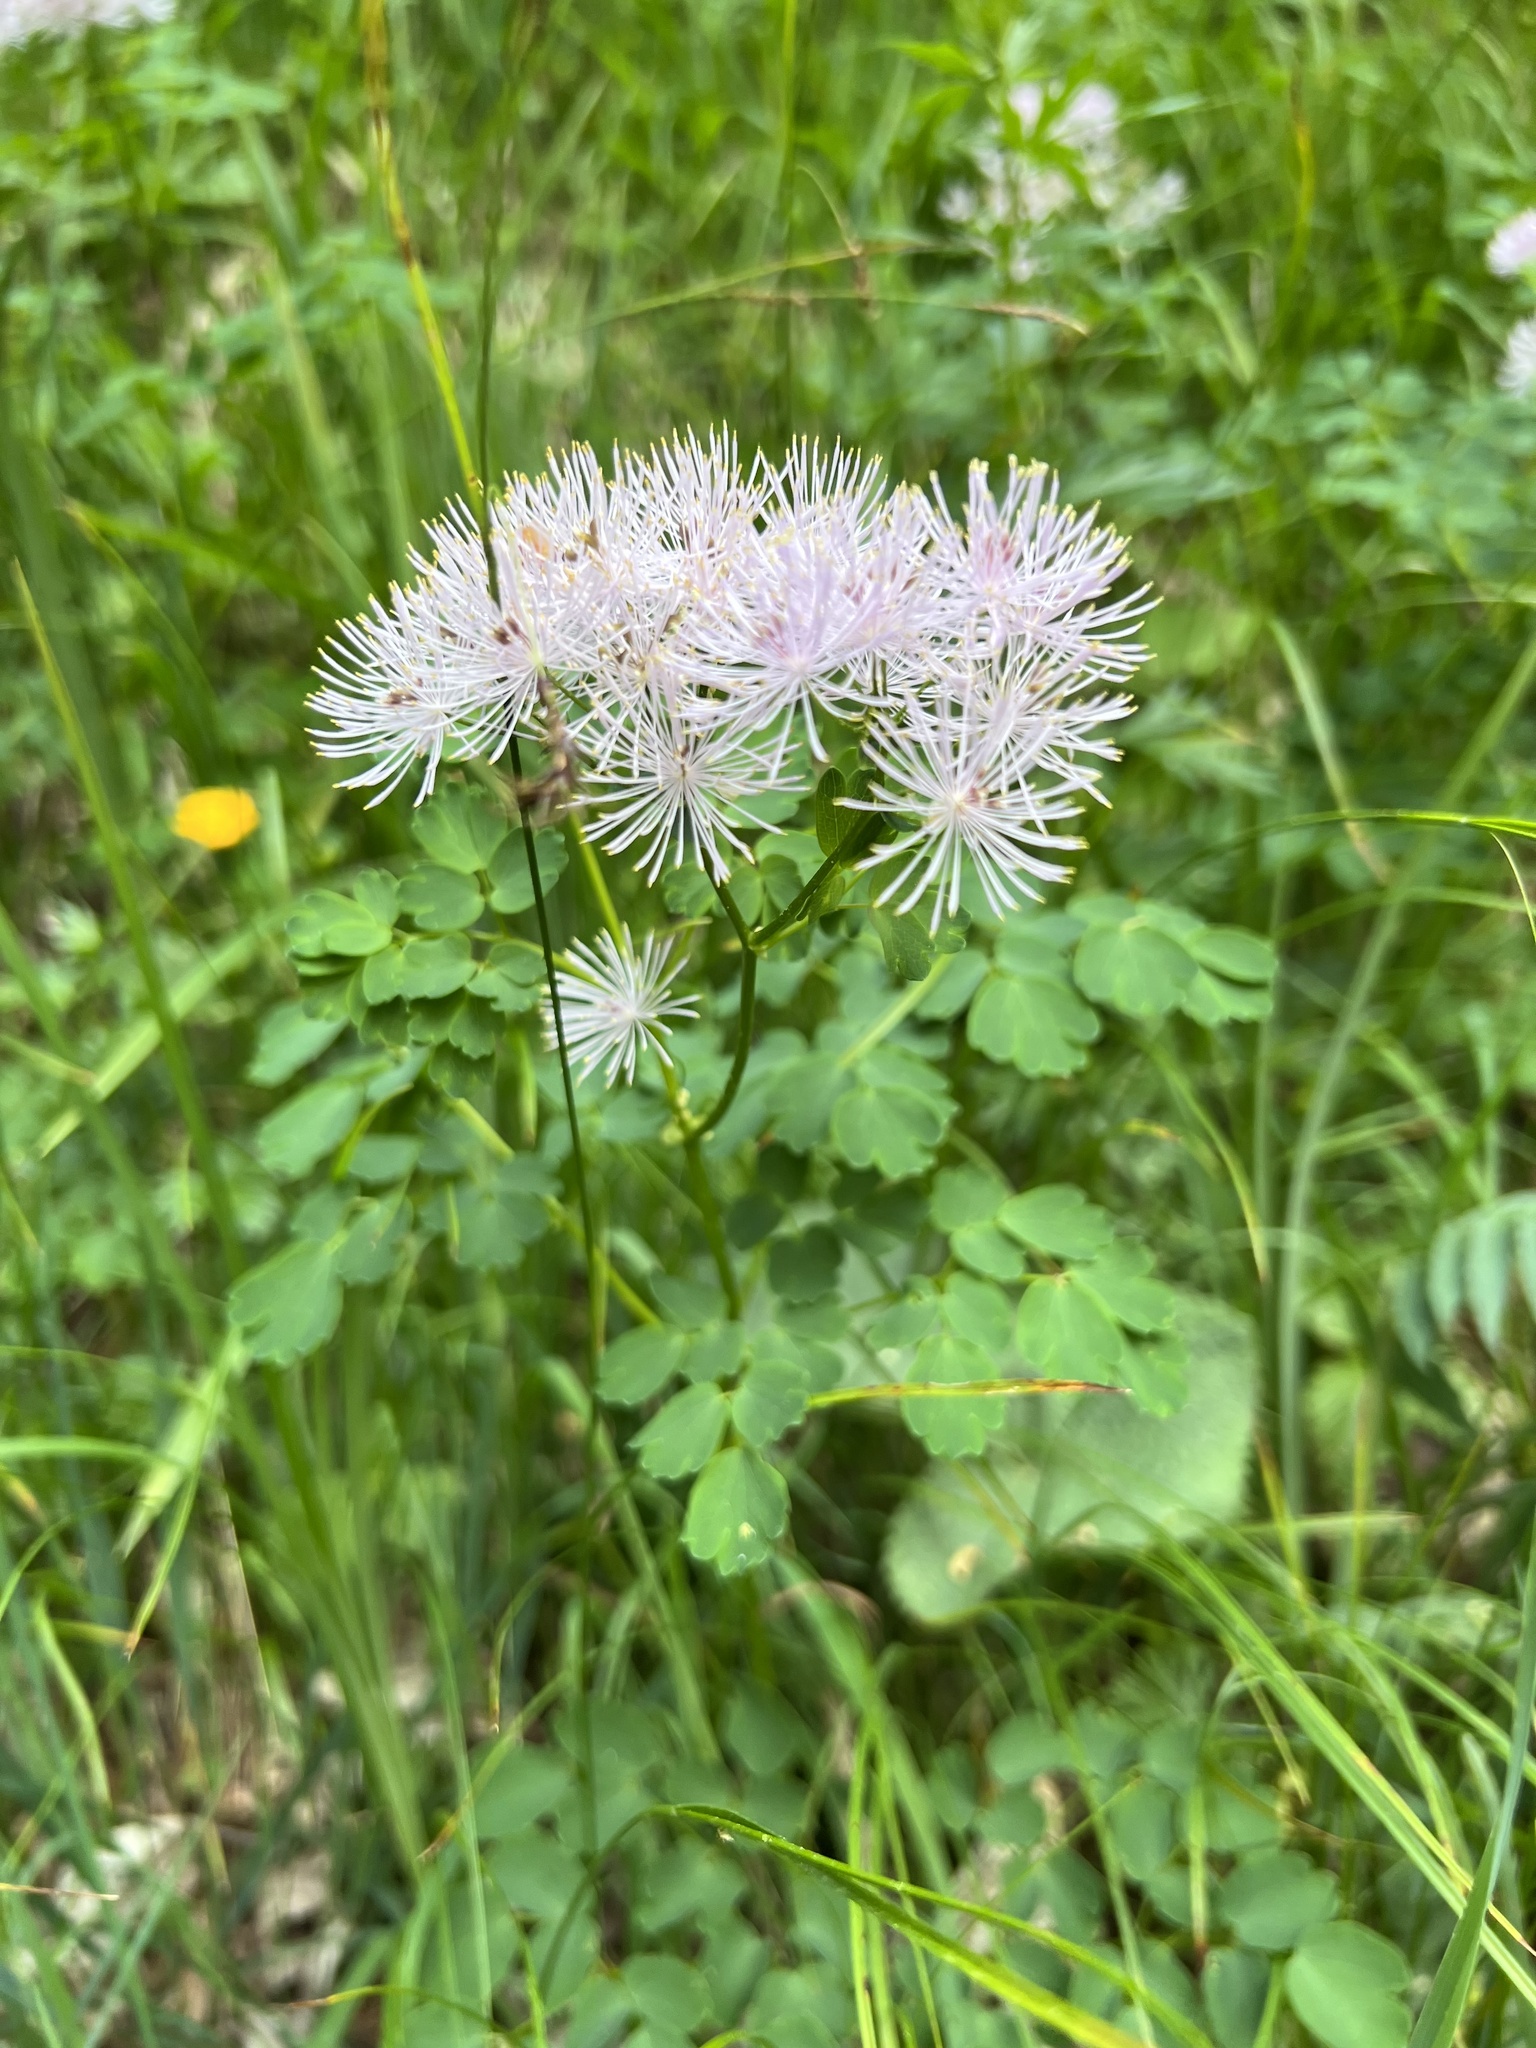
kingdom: Plantae
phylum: Tracheophyta
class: Magnoliopsida
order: Ranunculales
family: Ranunculaceae
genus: Thalictrum
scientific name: Thalictrum aquilegiifolium
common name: French meadow-rue
